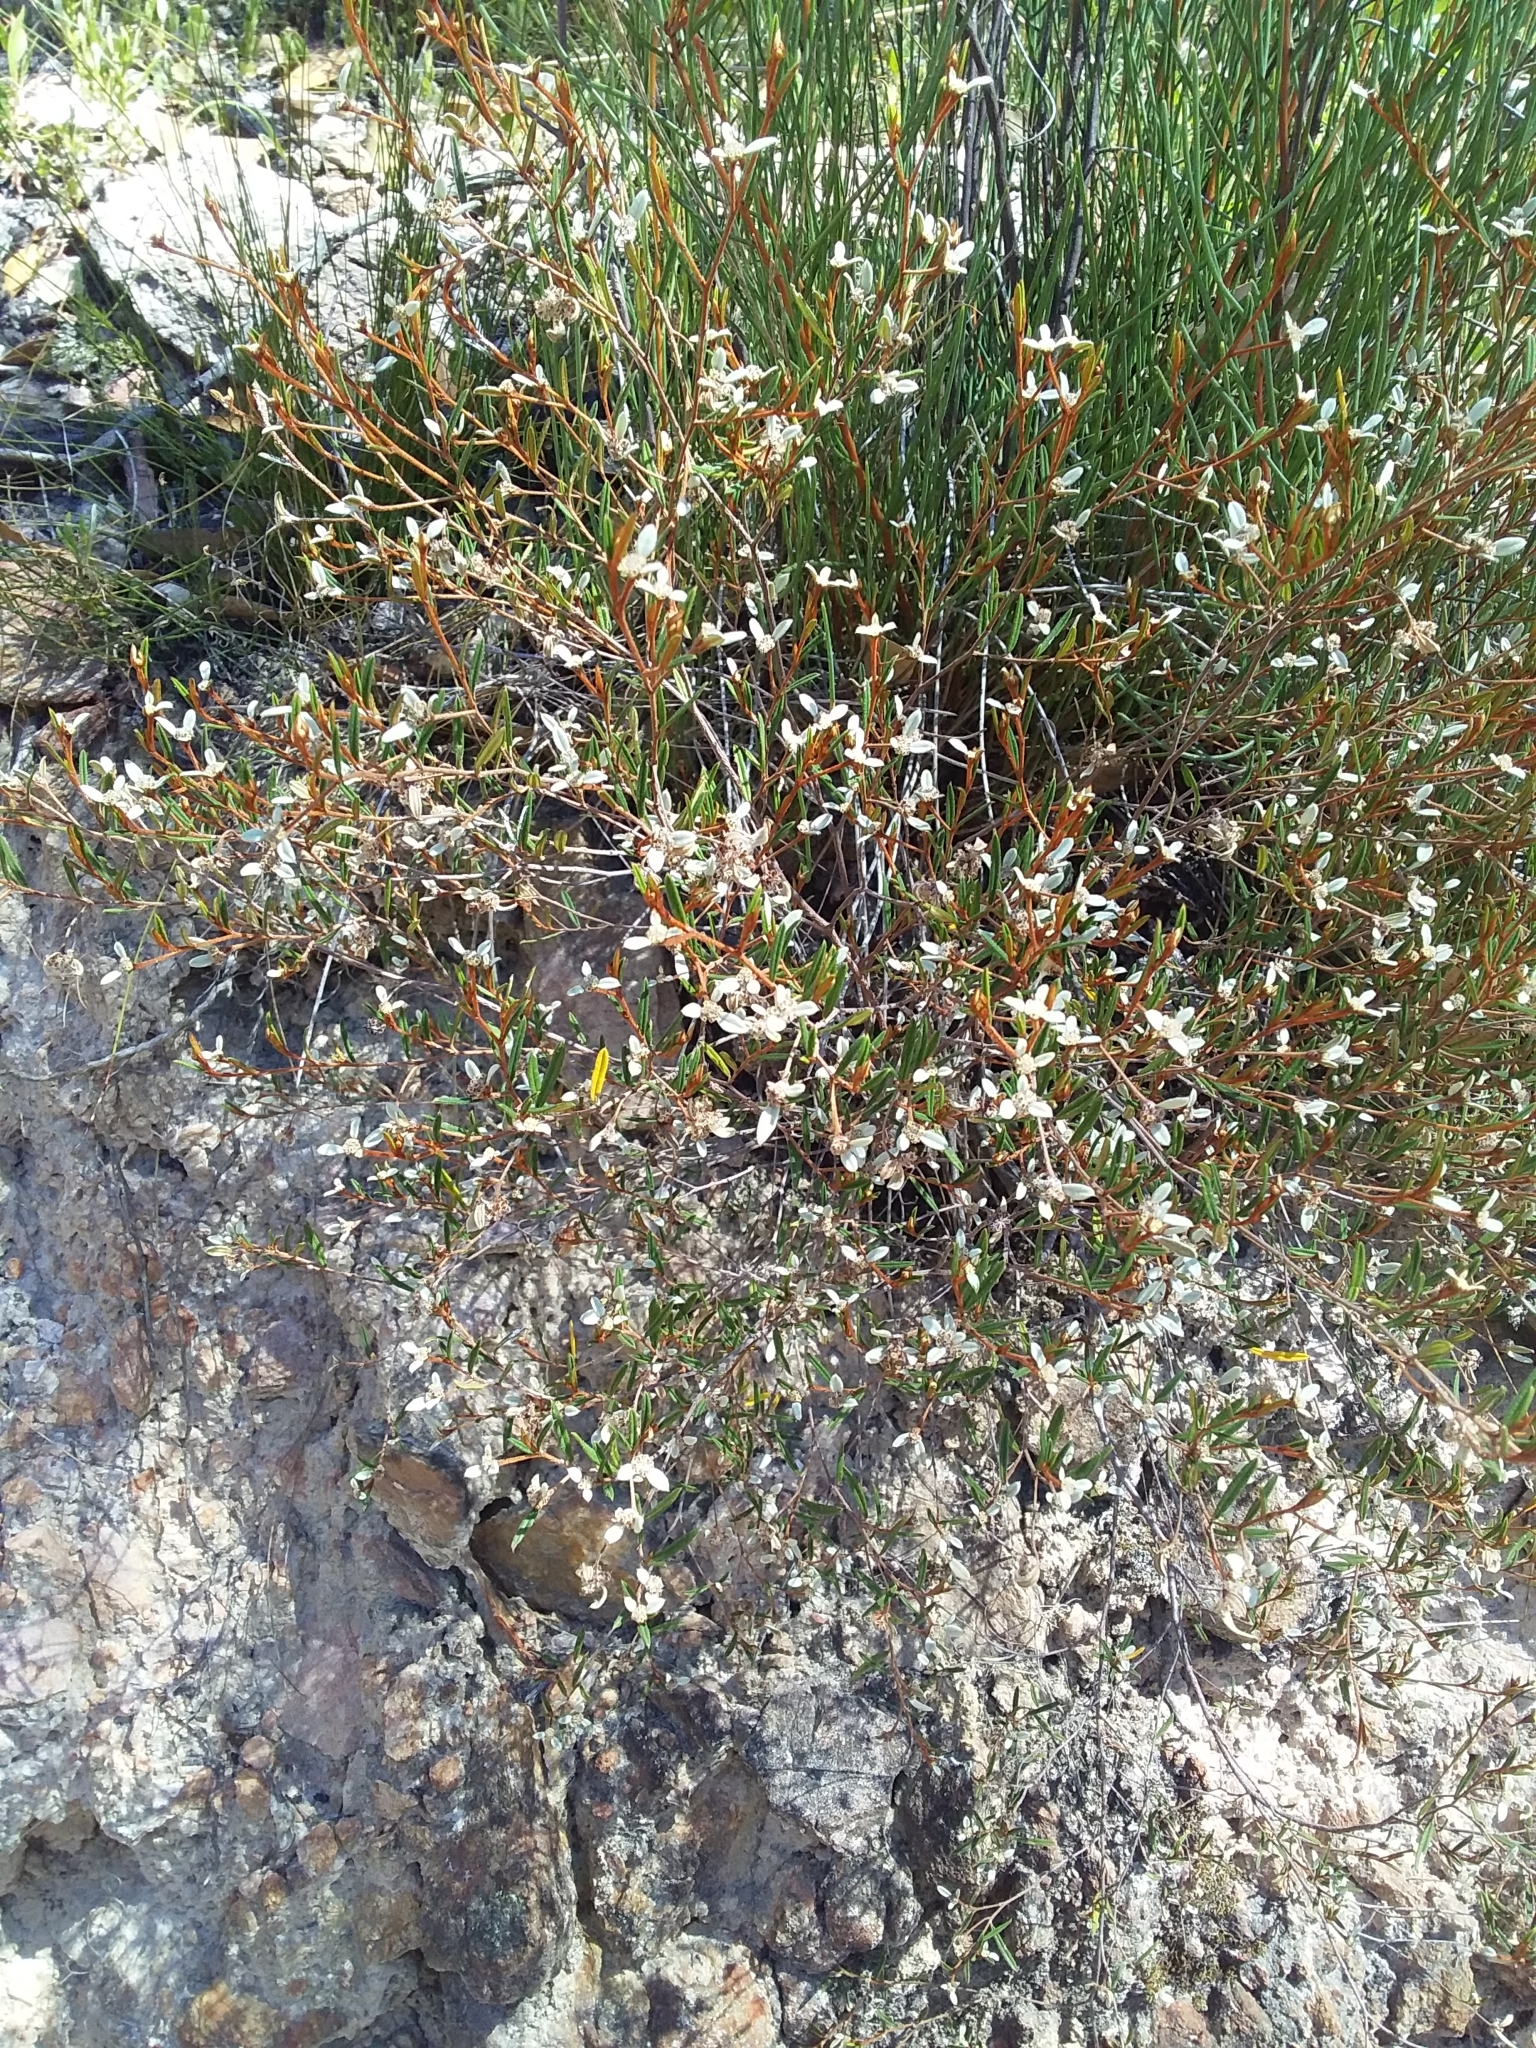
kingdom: Plantae
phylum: Tracheophyta
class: Magnoliopsida
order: Rosales
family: Rhamnaceae
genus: Spyridium
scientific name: Spyridium vexilliferum
